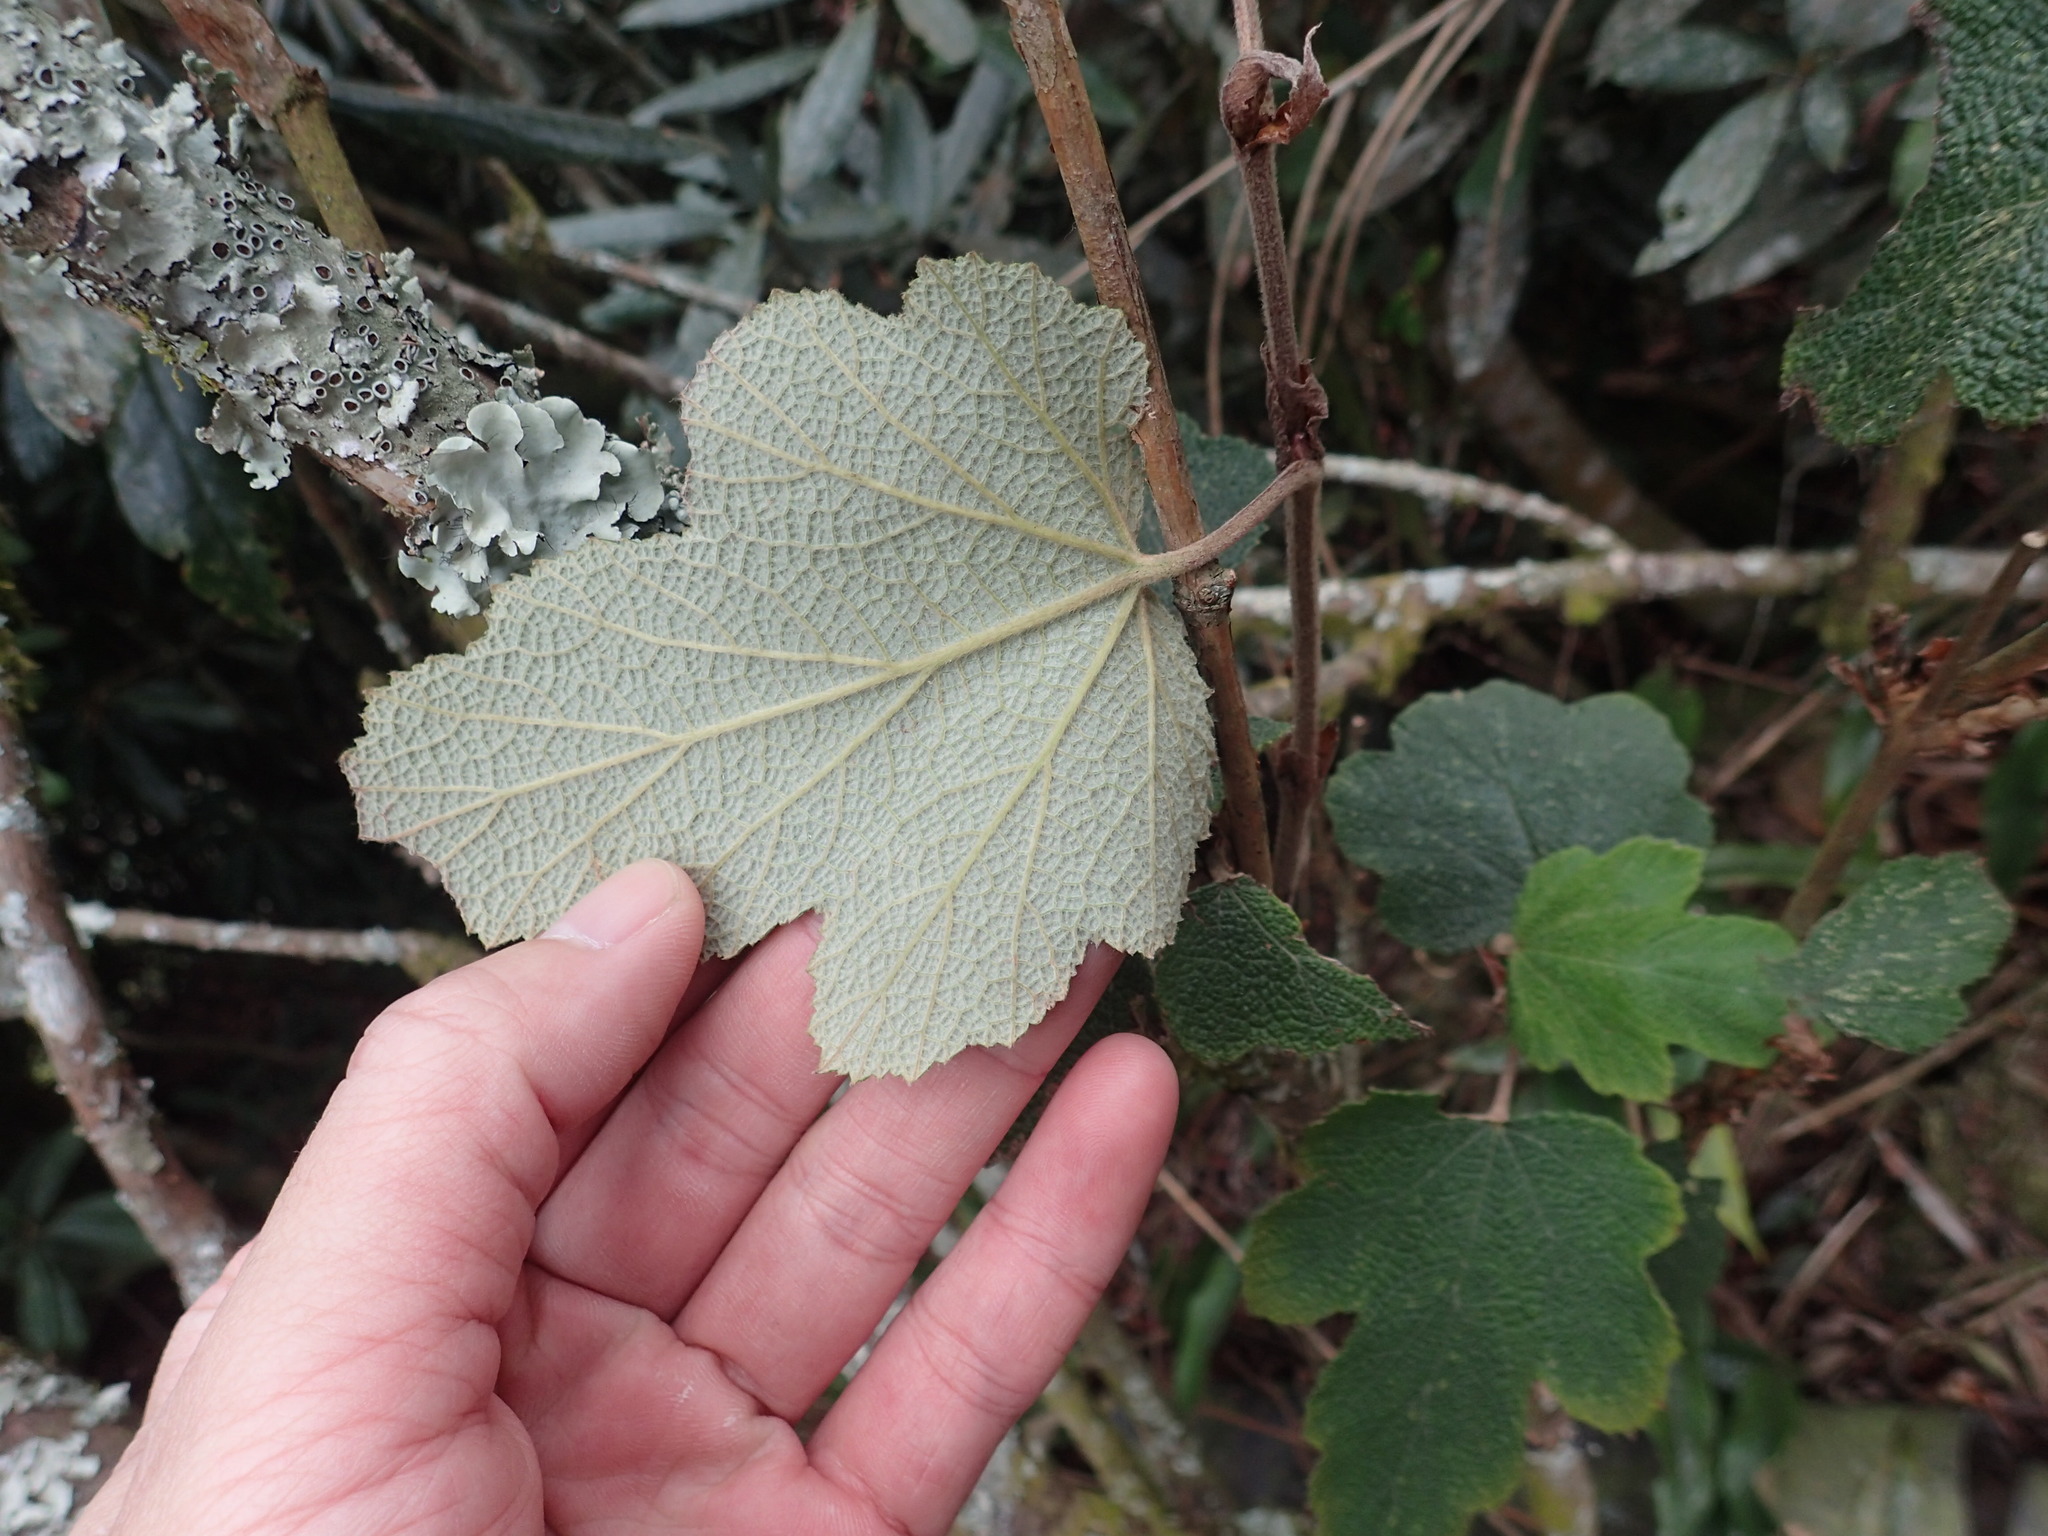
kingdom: Plantae
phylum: Tracheophyta
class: Magnoliopsida
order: Rosales
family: Rosaceae
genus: Rubus
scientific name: Rubus formosensis
